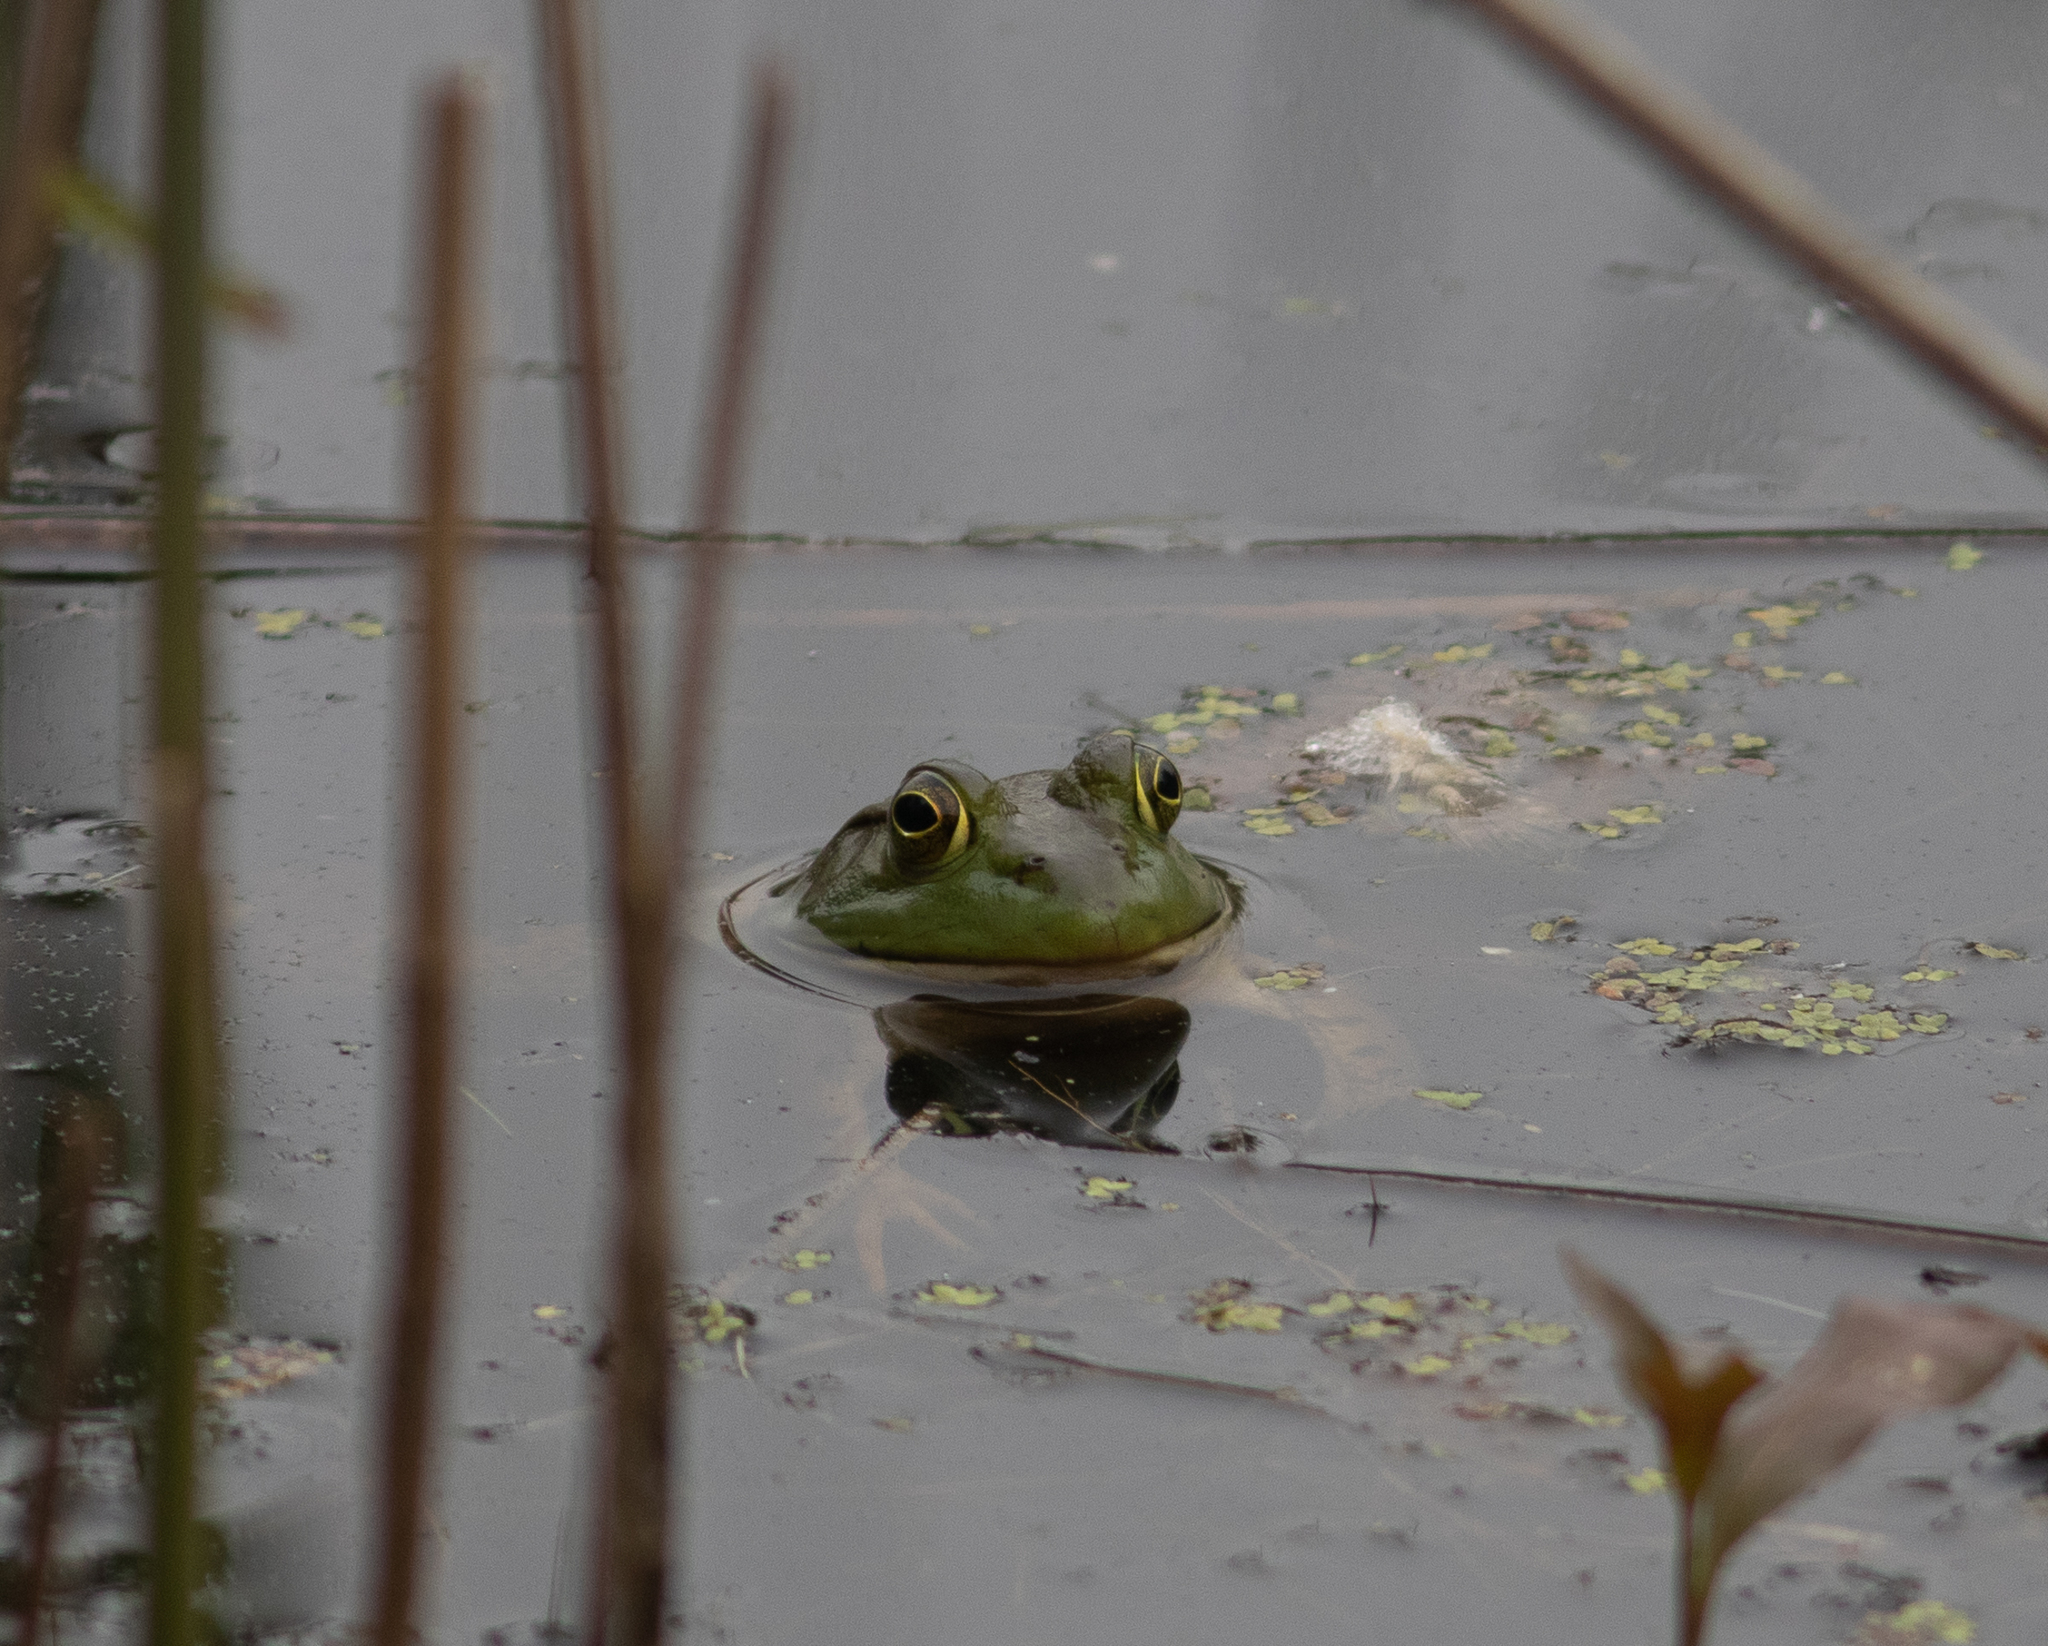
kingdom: Animalia
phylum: Chordata
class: Amphibia
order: Anura
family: Ranidae
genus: Lithobates
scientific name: Lithobates catesbeianus
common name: American bullfrog
